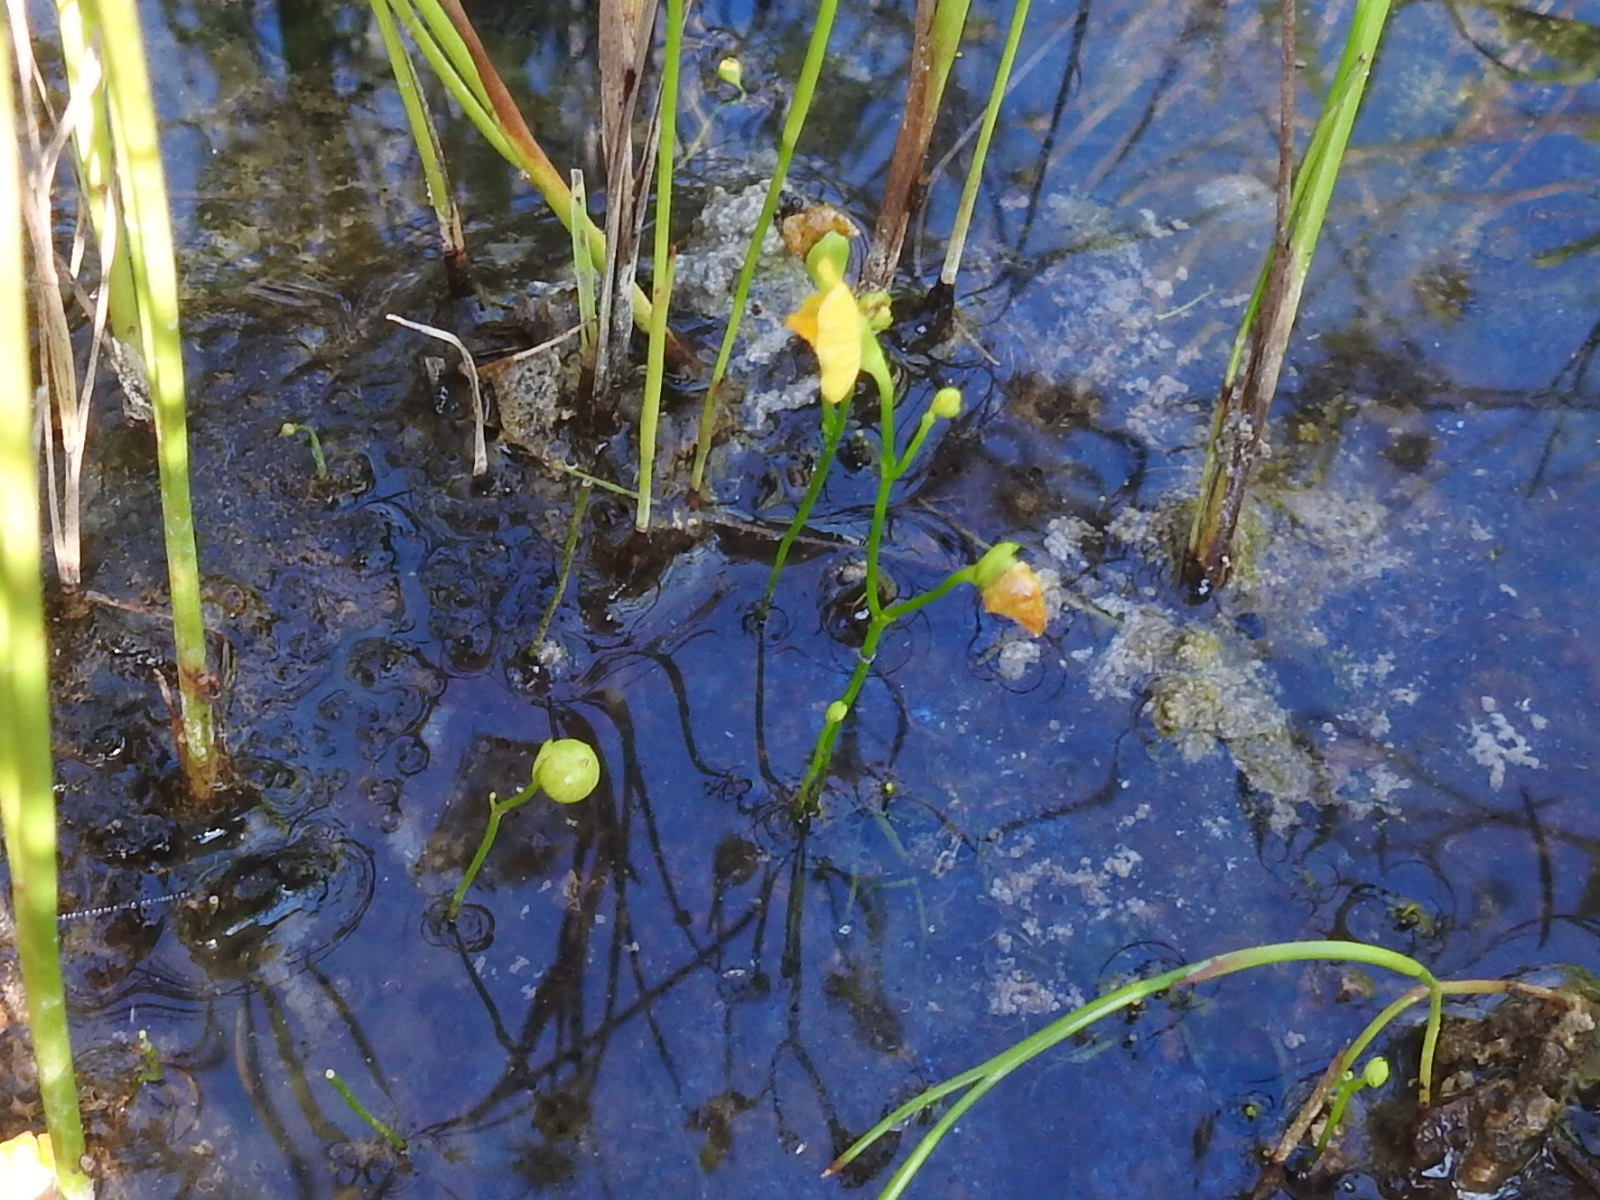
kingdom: Plantae
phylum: Tracheophyta
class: Magnoliopsida
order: Lamiales
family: Lentibulariaceae
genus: Utricularia
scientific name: Utricularia gibba
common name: Humped bladderwort
